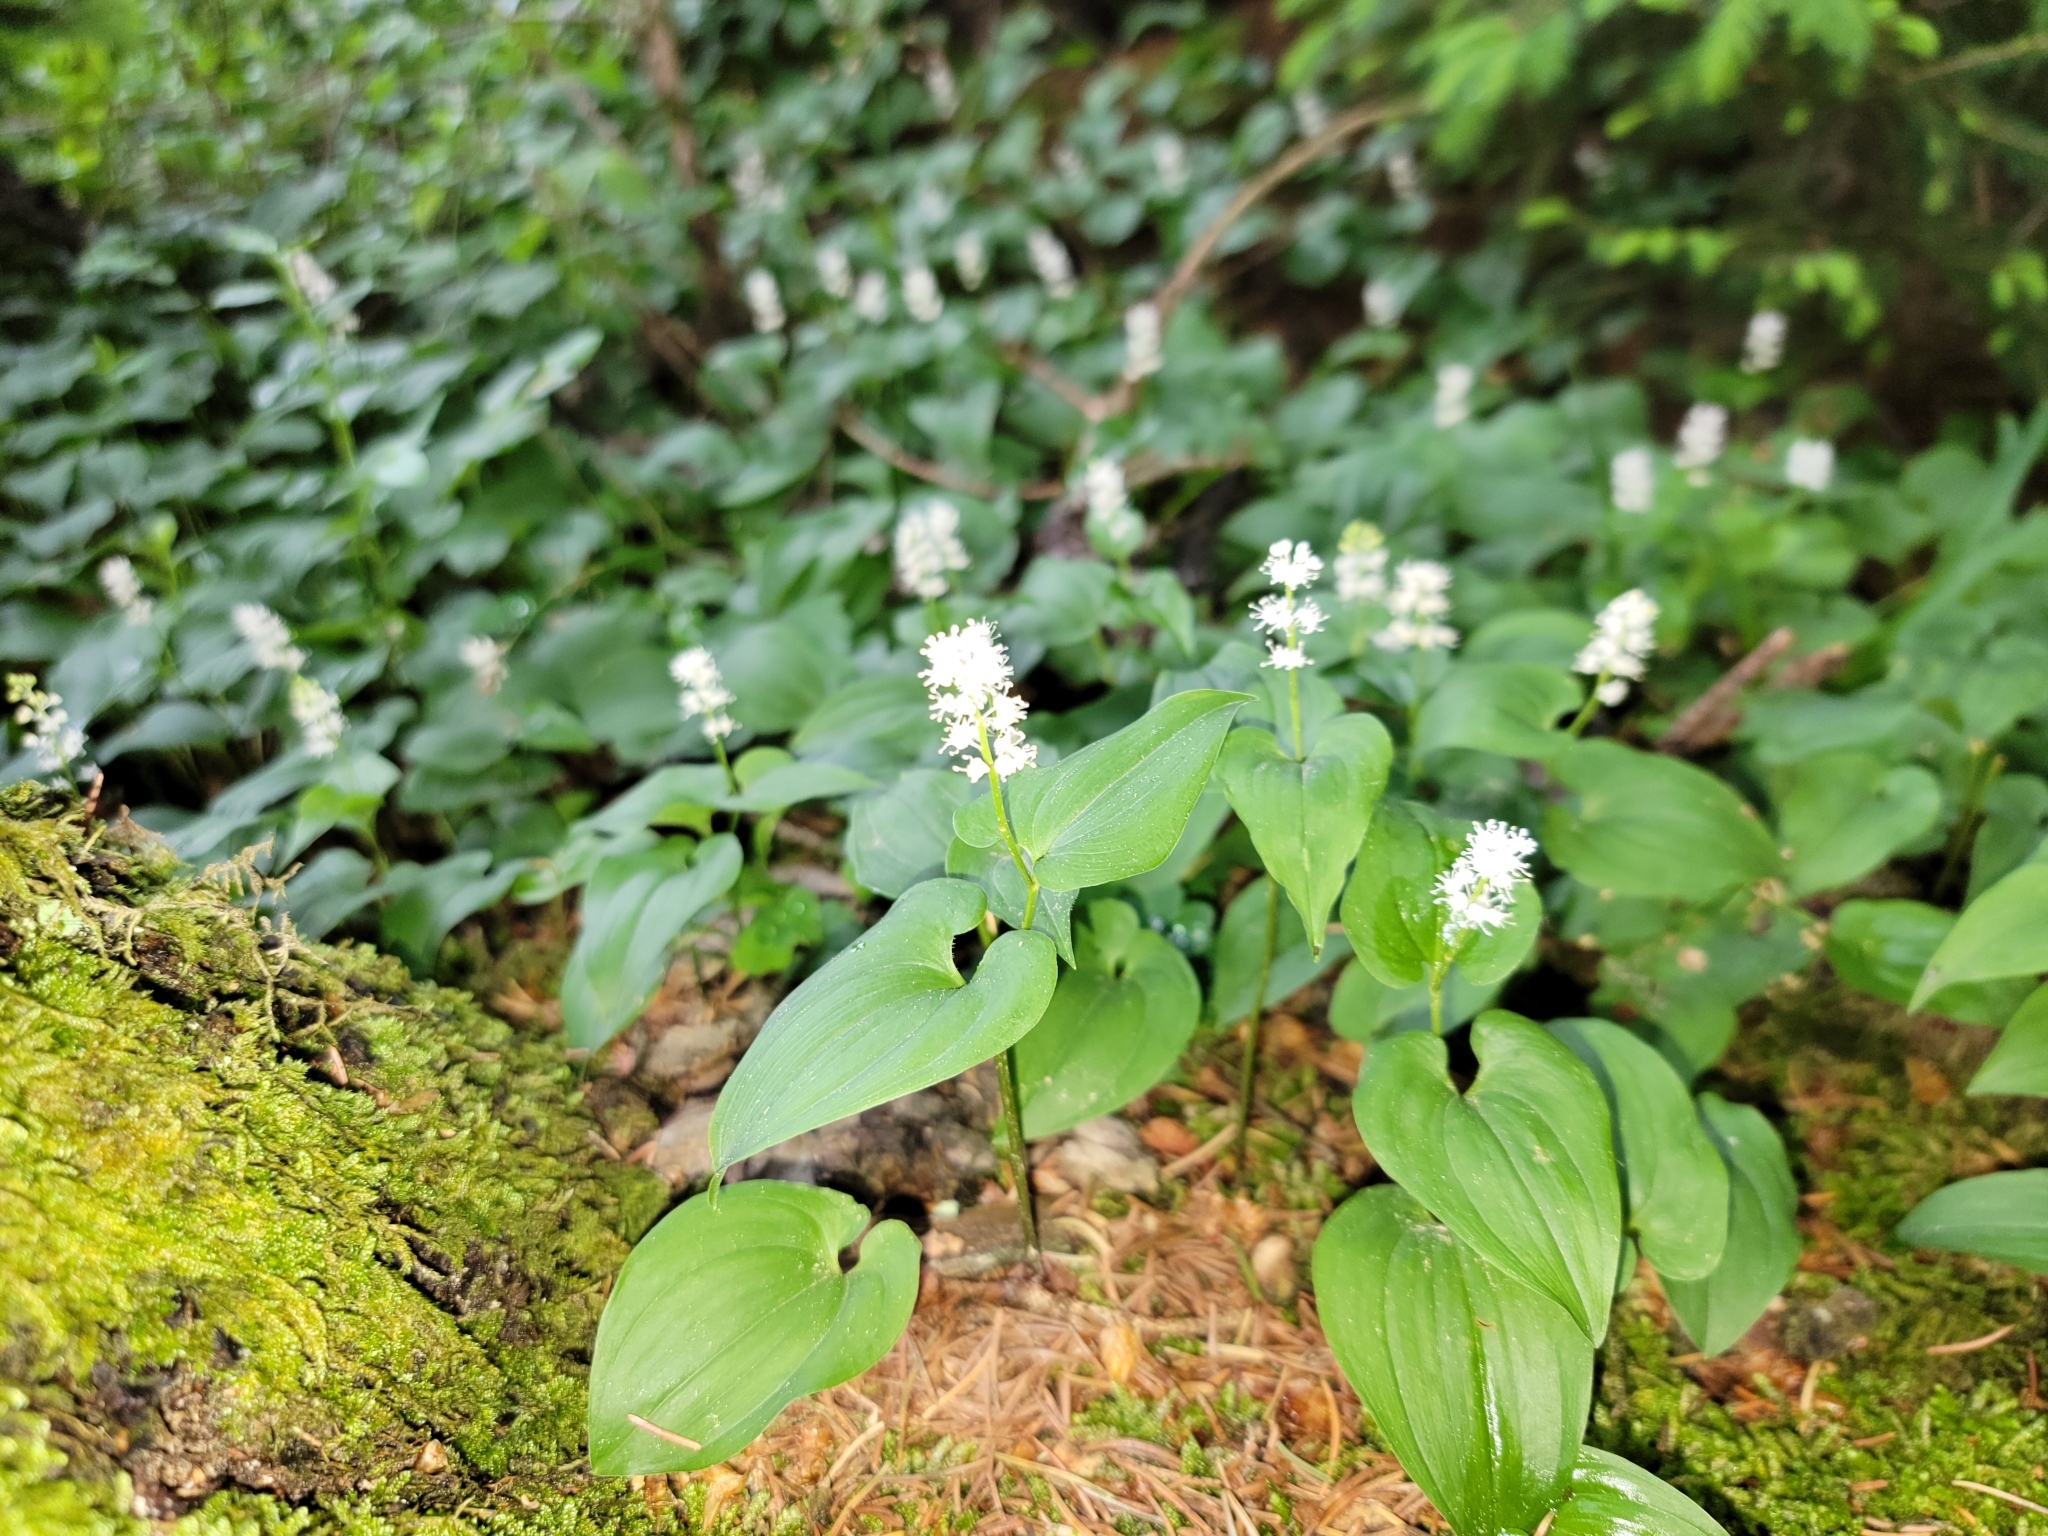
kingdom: Plantae
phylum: Tracheophyta
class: Liliopsida
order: Asparagales
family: Asparagaceae
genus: Maianthemum
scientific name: Maianthemum bifolium
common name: May lily
